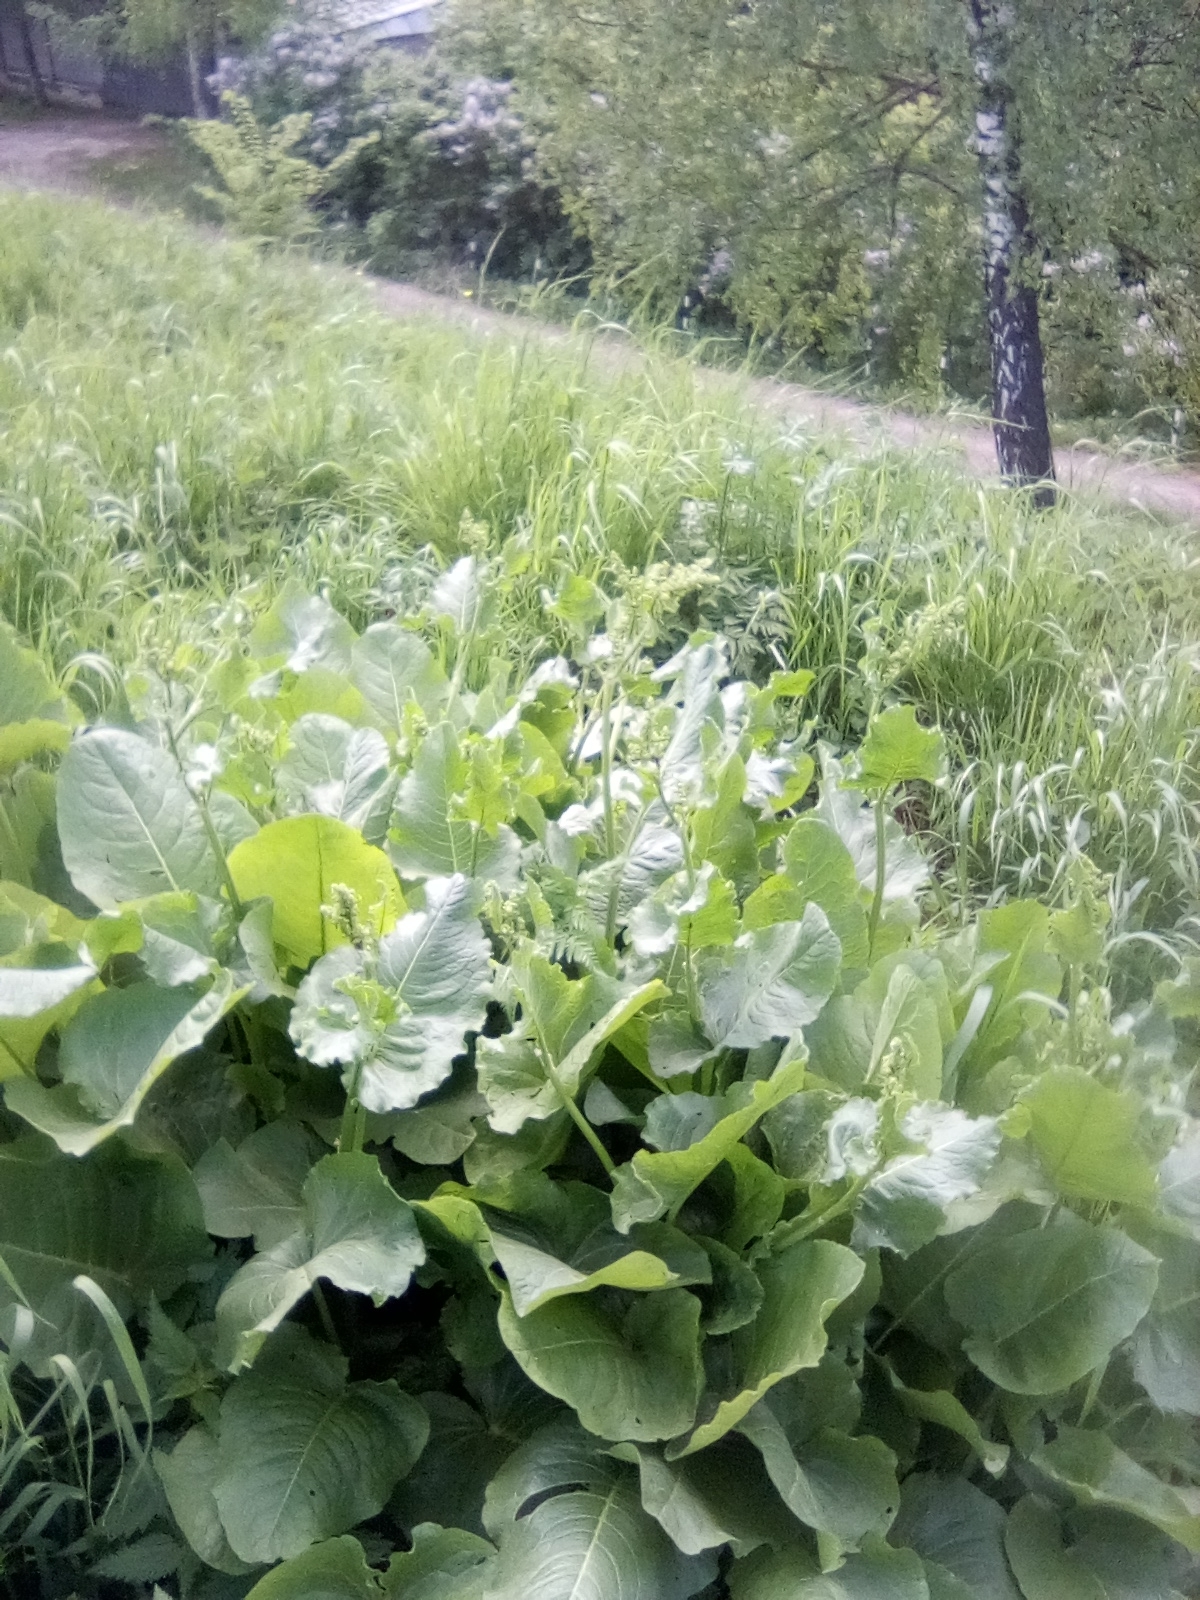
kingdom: Plantae
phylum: Tracheophyta
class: Magnoliopsida
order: Caryophyllales
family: Polygonaceae
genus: Rumex
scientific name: Rumex confertus
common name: Russian dock
